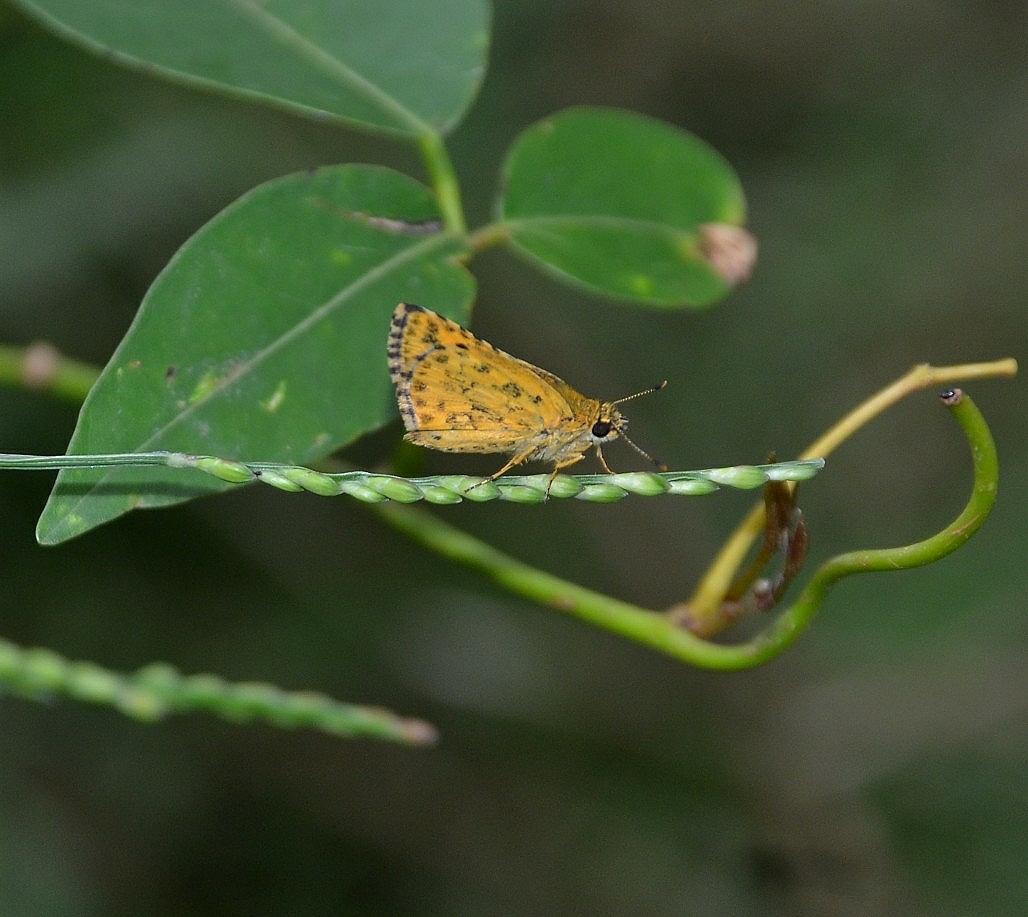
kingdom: Animalia
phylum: Arthropoda
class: Insecta
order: Lepidoptera
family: Hesperiidae
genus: Ampittia
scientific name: Ampittia dioscorides
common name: Common bush hopper
